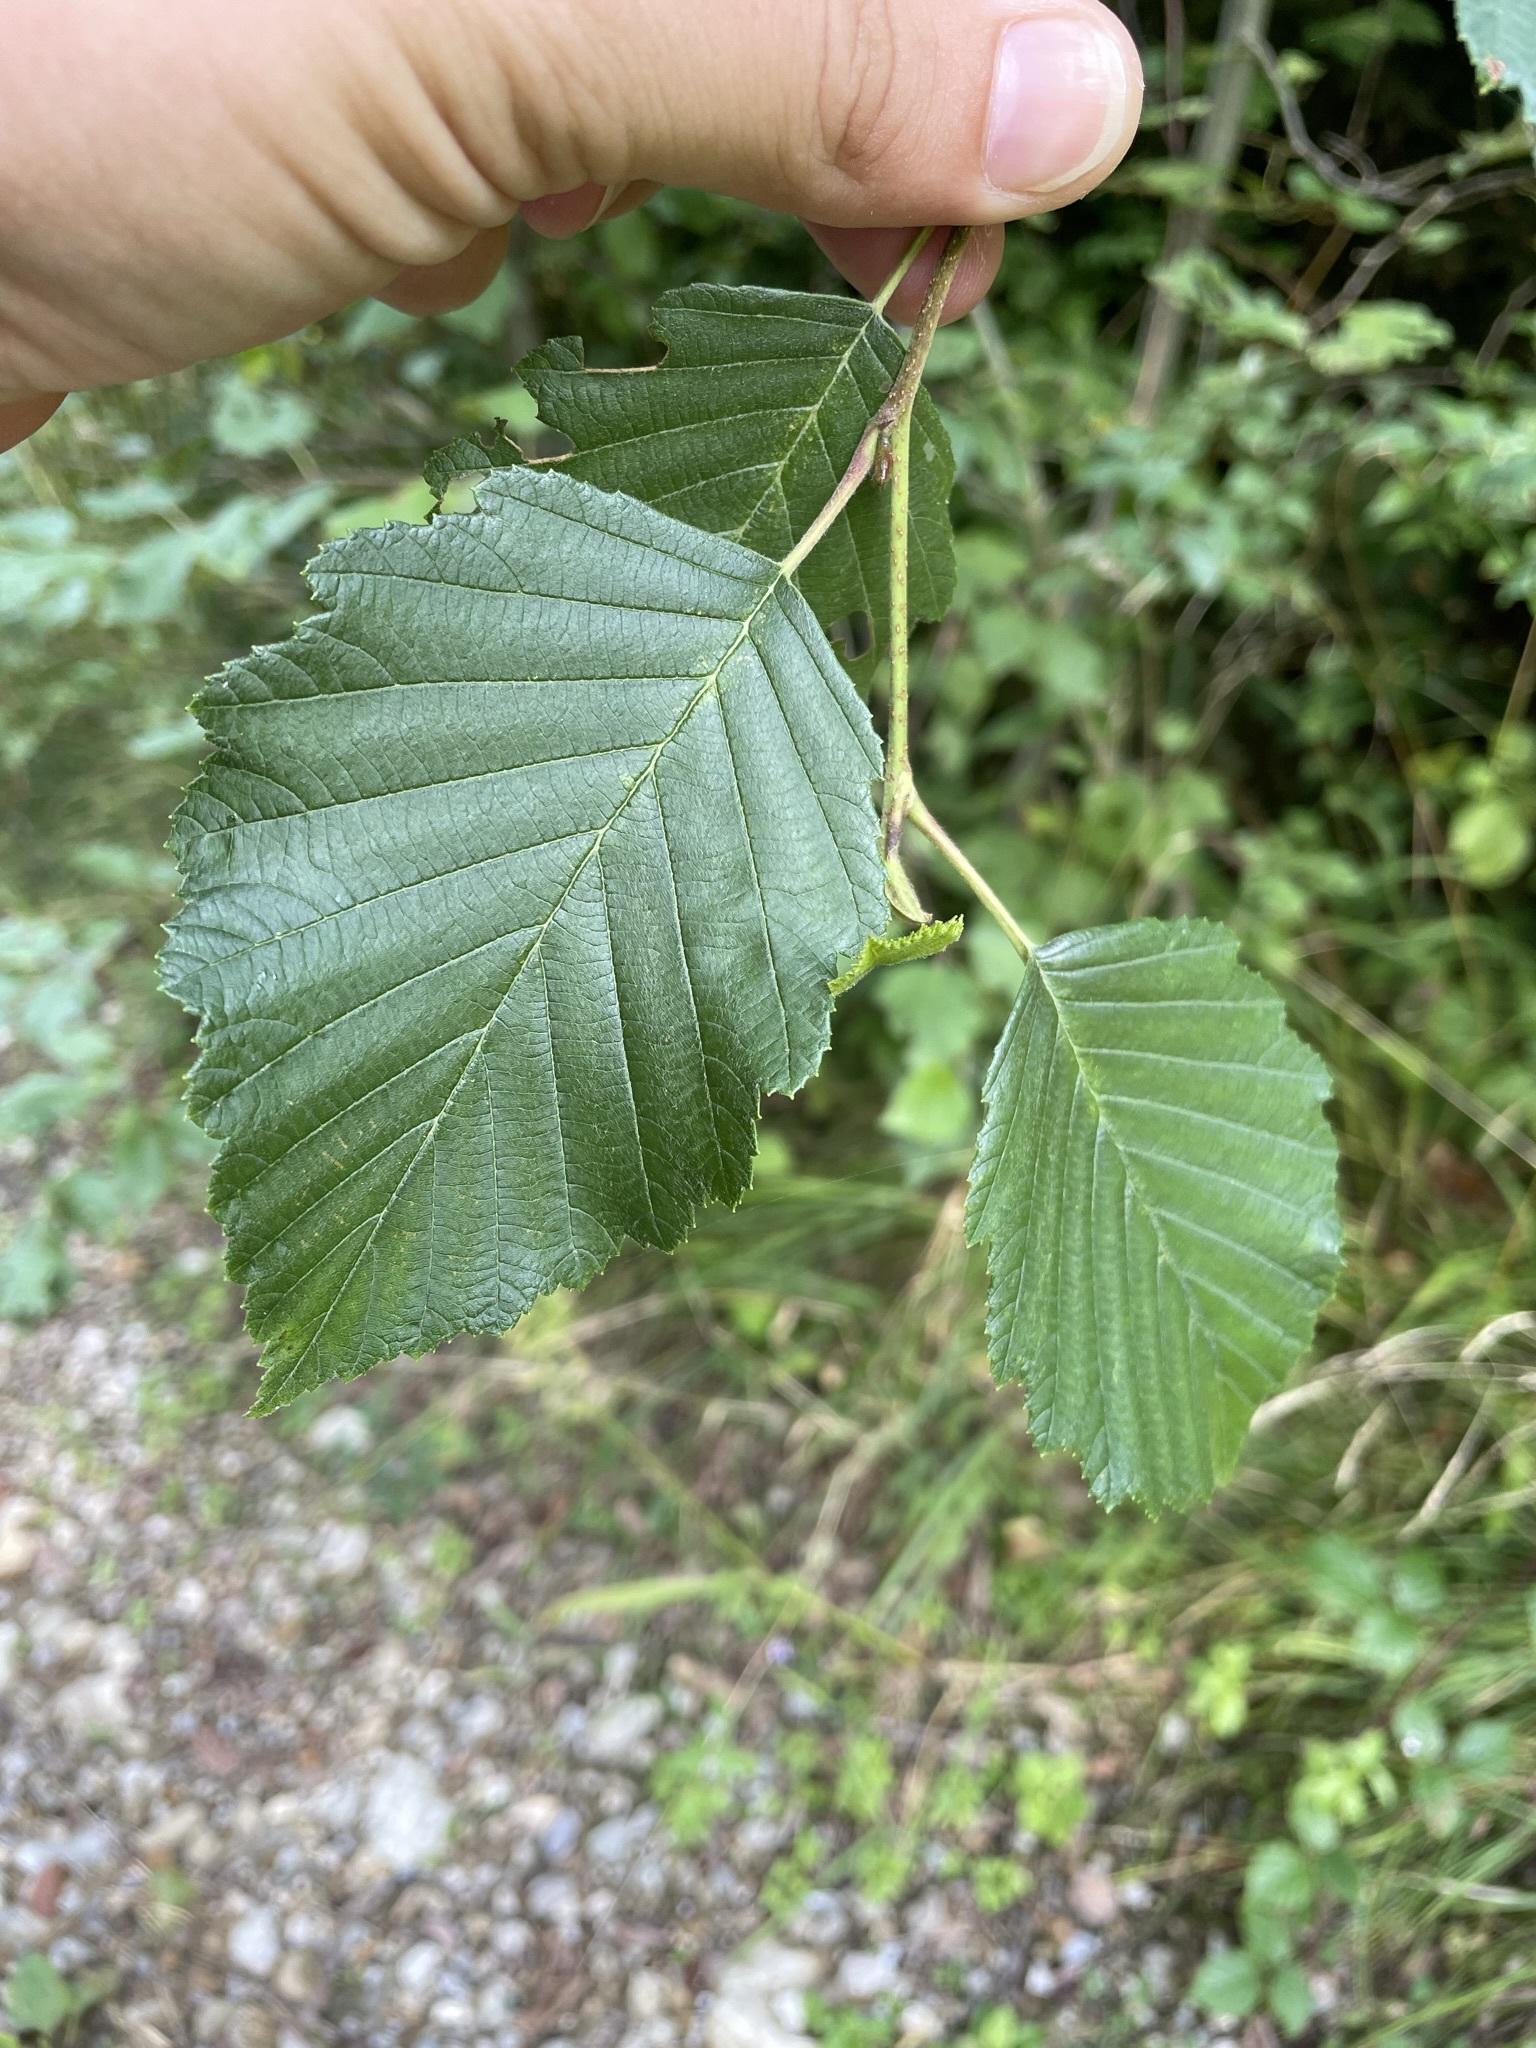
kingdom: Plantae
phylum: Tracheophyta
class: Magnoliopsida
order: Fagales
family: Betulaceae
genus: Alnus
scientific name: Alnus incana
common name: Grey alder
